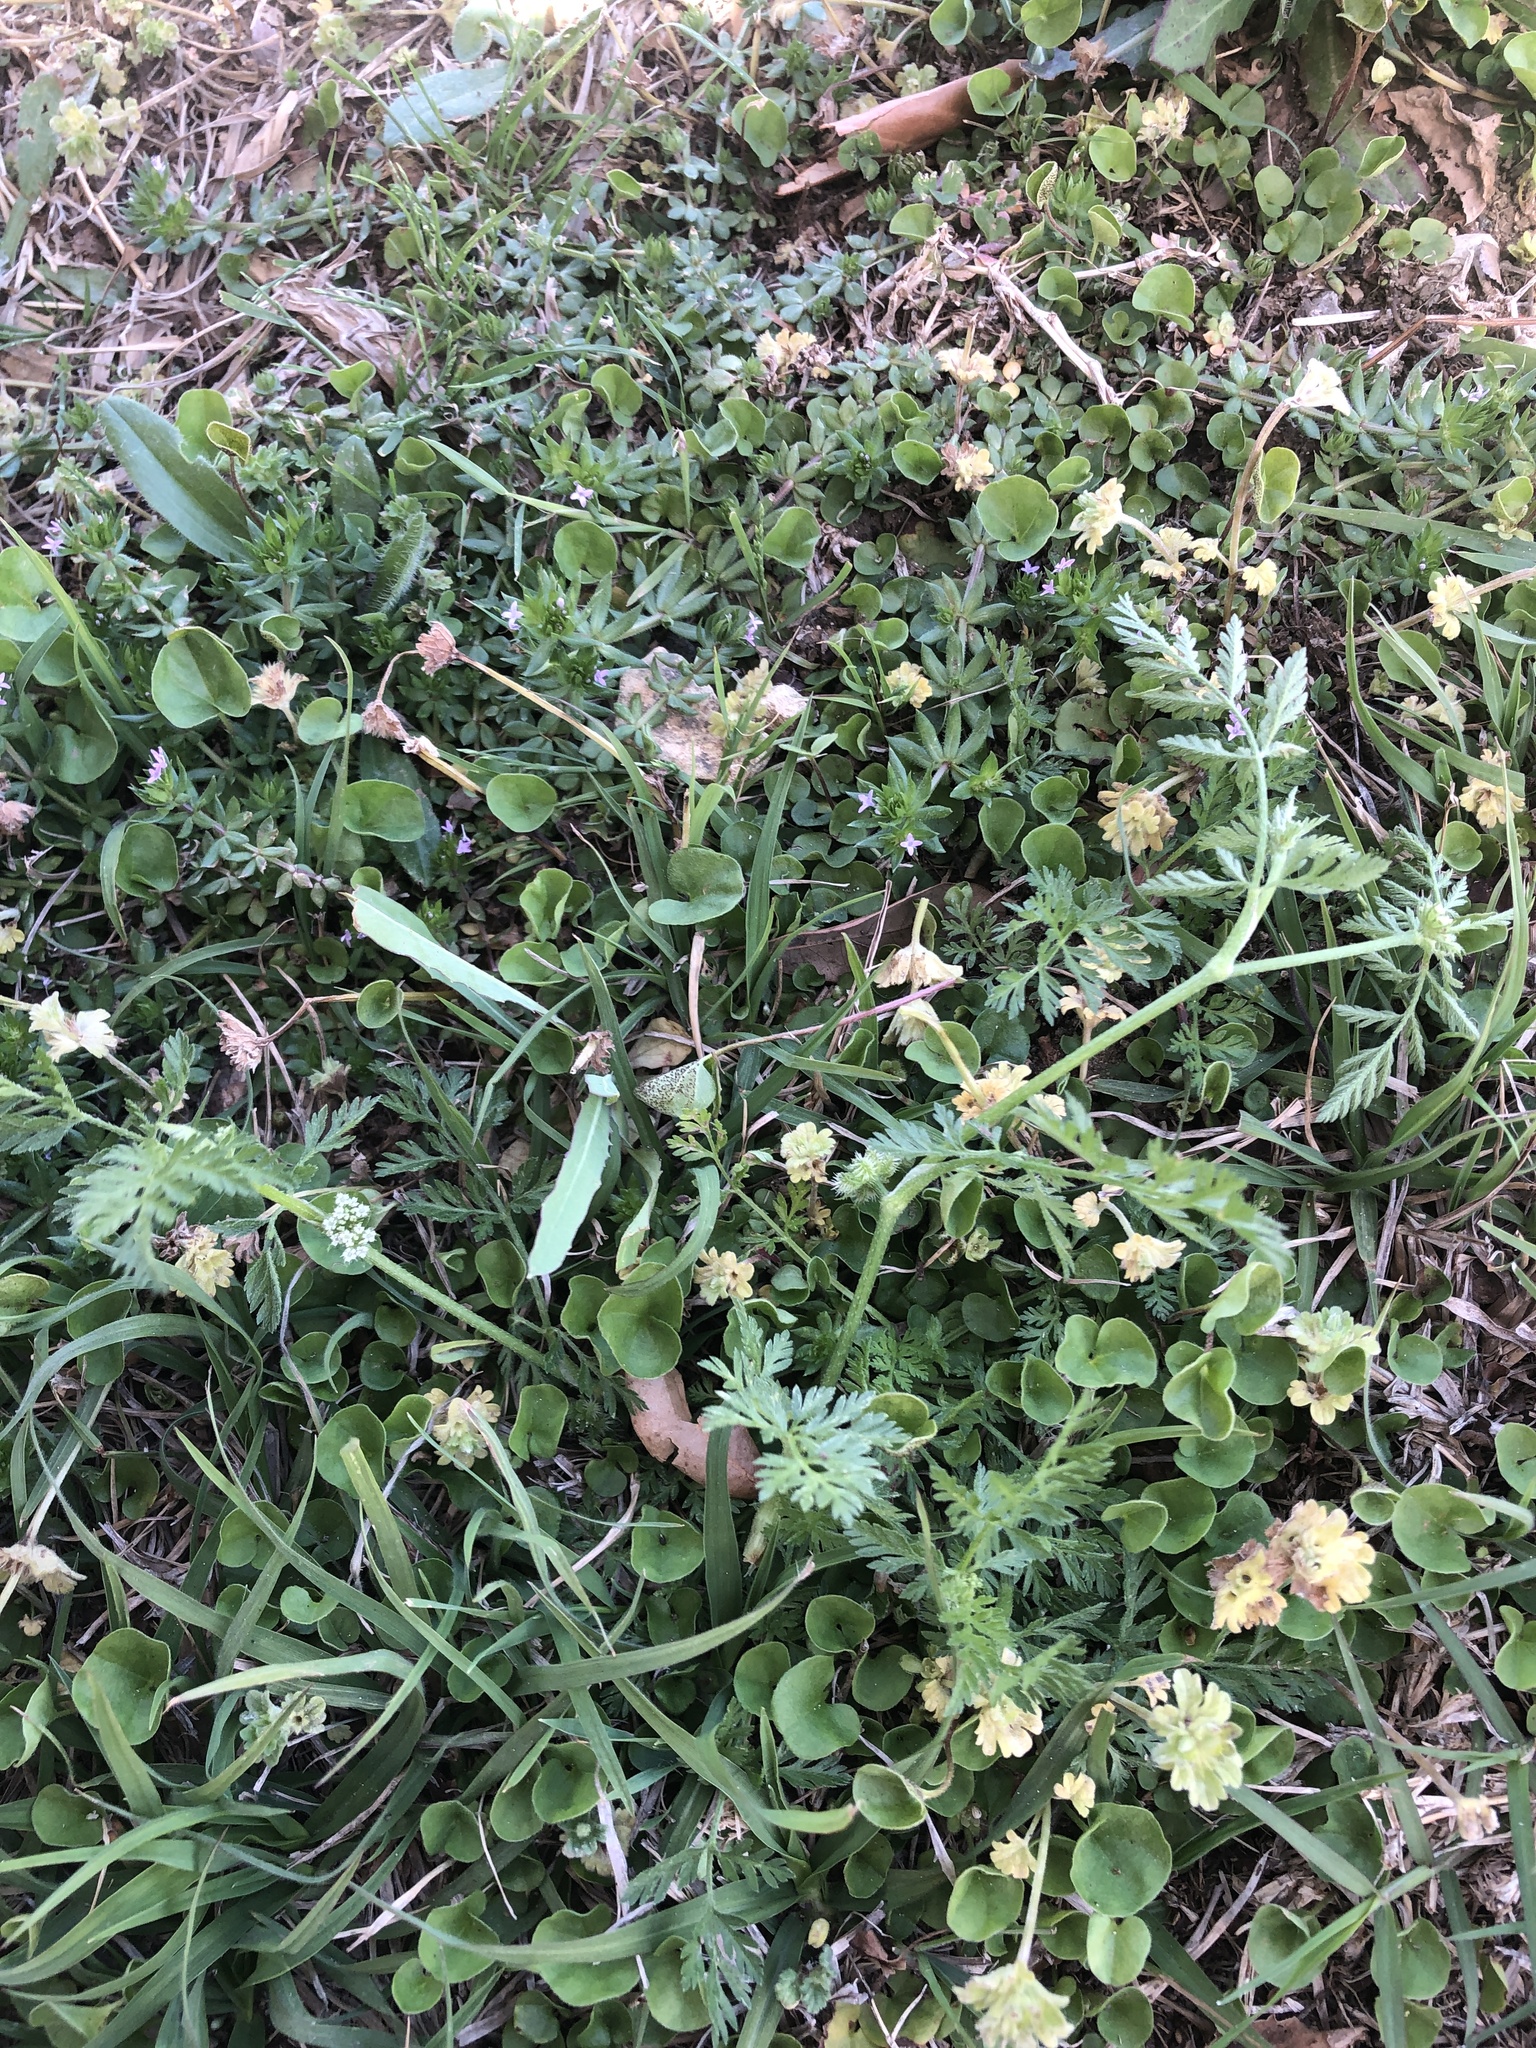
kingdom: Plantae
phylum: Tracheophyta
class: Magnoliopsida
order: Apiales
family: Apiaceae
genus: Torilis
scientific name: Torilis nodosa
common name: Knotted hedge-parsley
